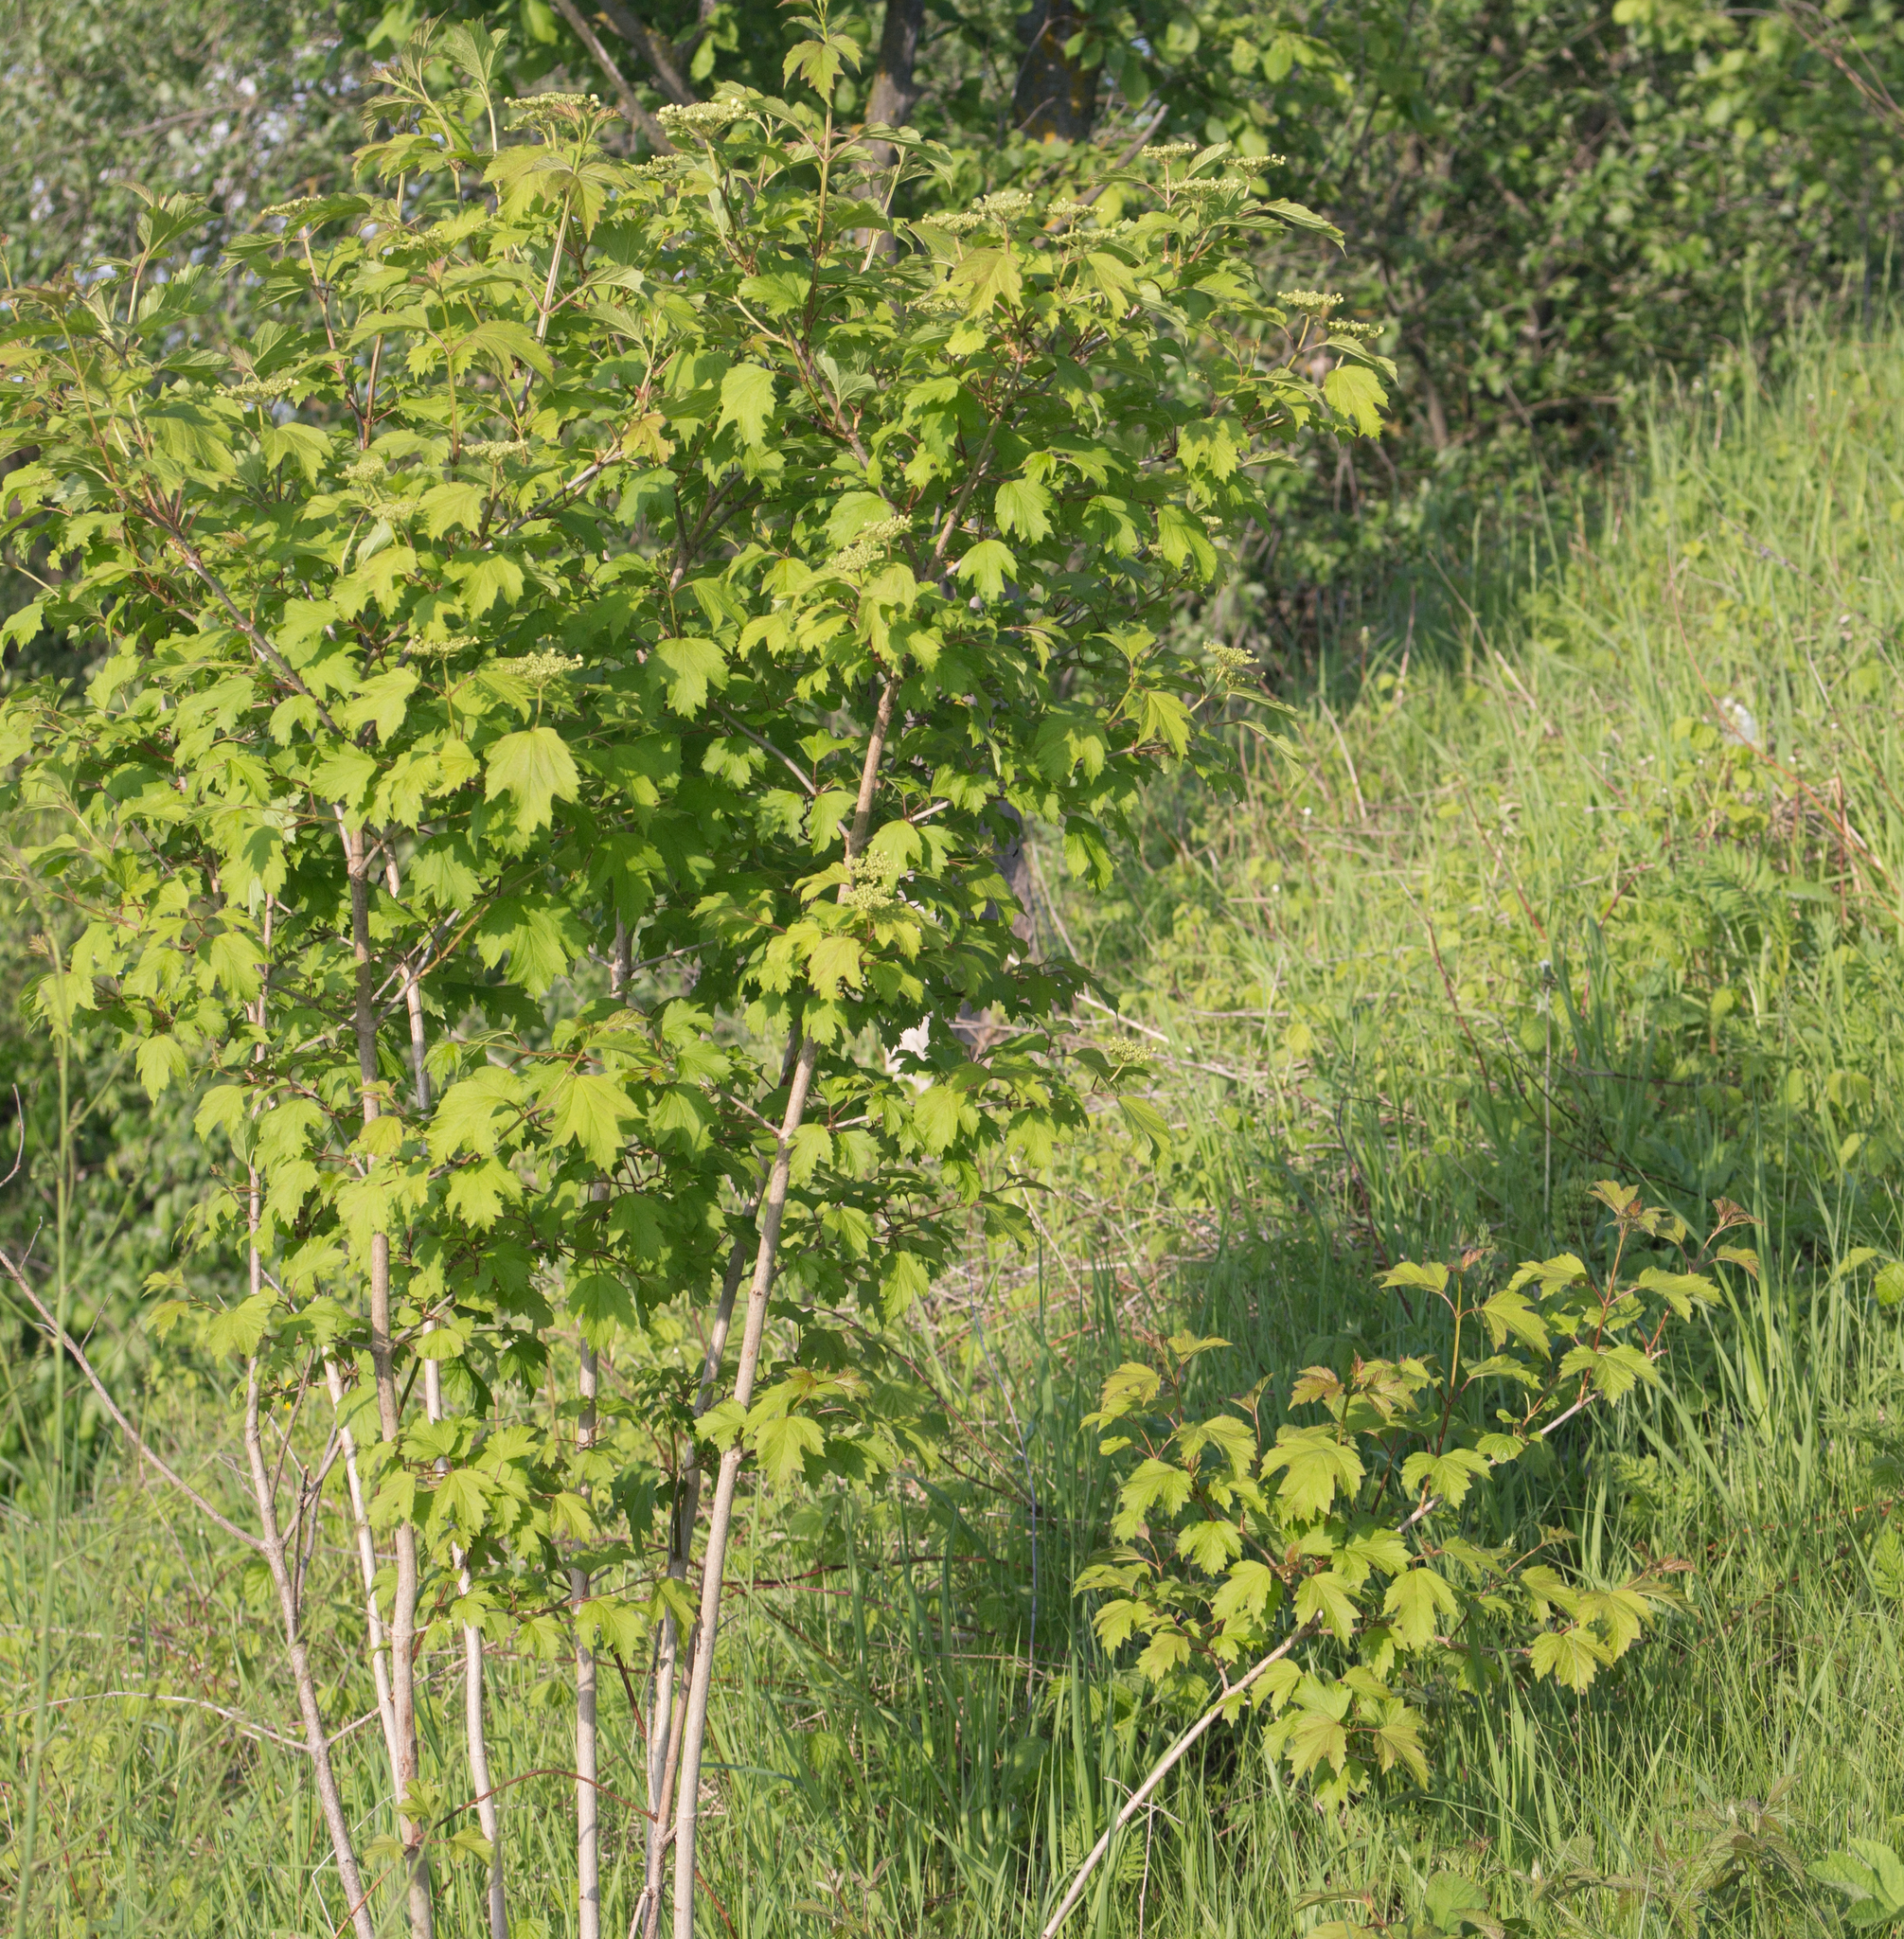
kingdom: Plantae
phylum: Tracheophyta
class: Magnoliopsida
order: Dipsacales
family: Viburnaceae
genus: Viburnum
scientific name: Viburnum opulus
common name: Guelder-rose
